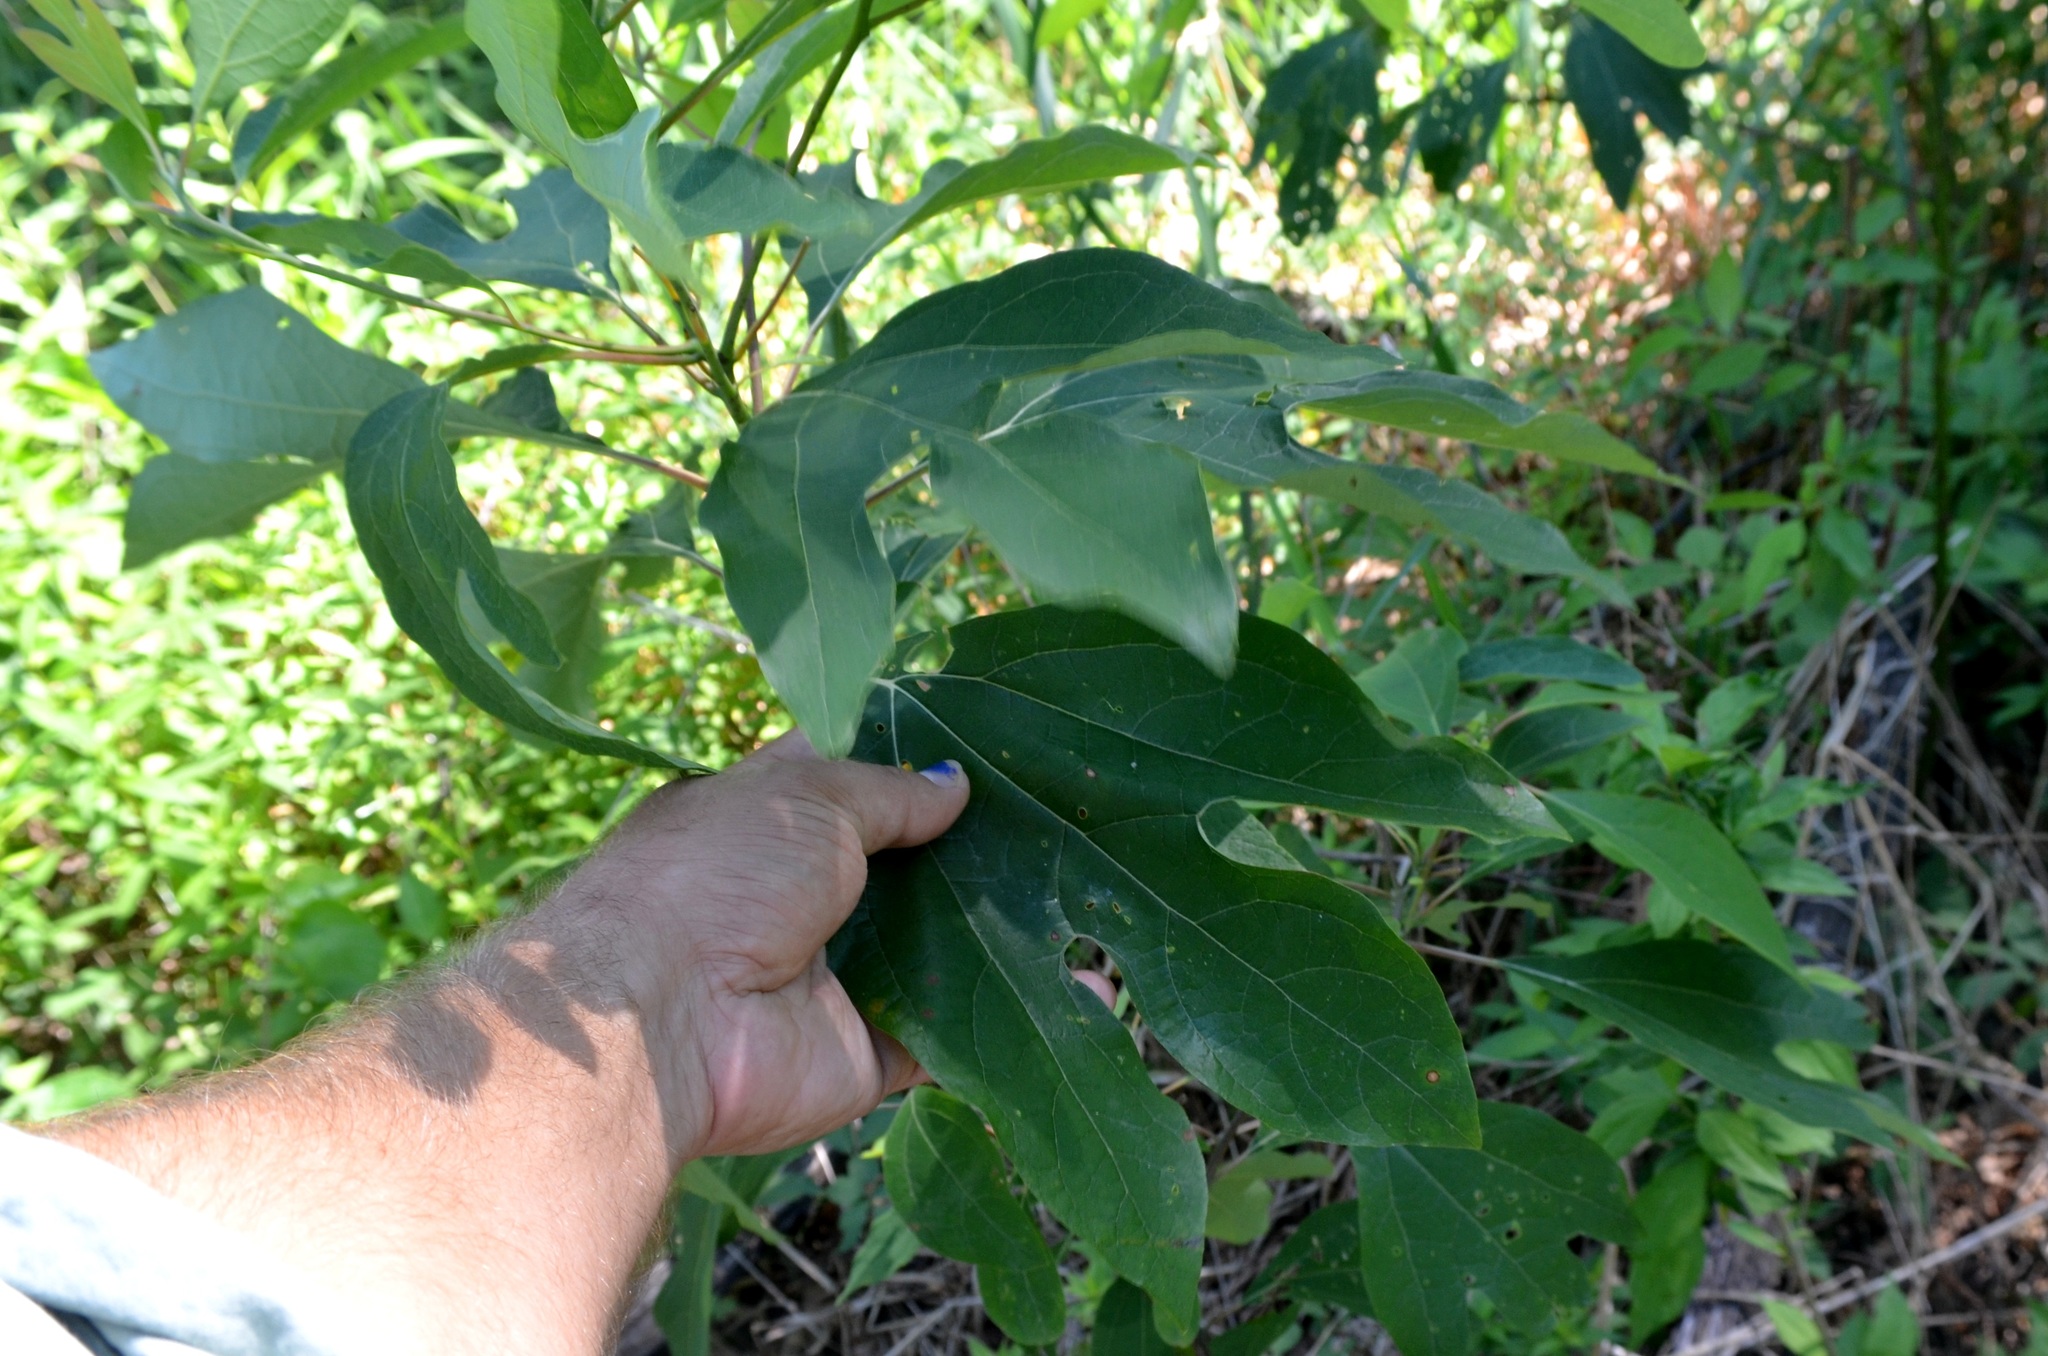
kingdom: Plantae
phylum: Tracheophyta
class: Magnoliopsida
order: Laurales
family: Lauraceae
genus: Sassafras
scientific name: Sassafras albidum
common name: Sassafras
